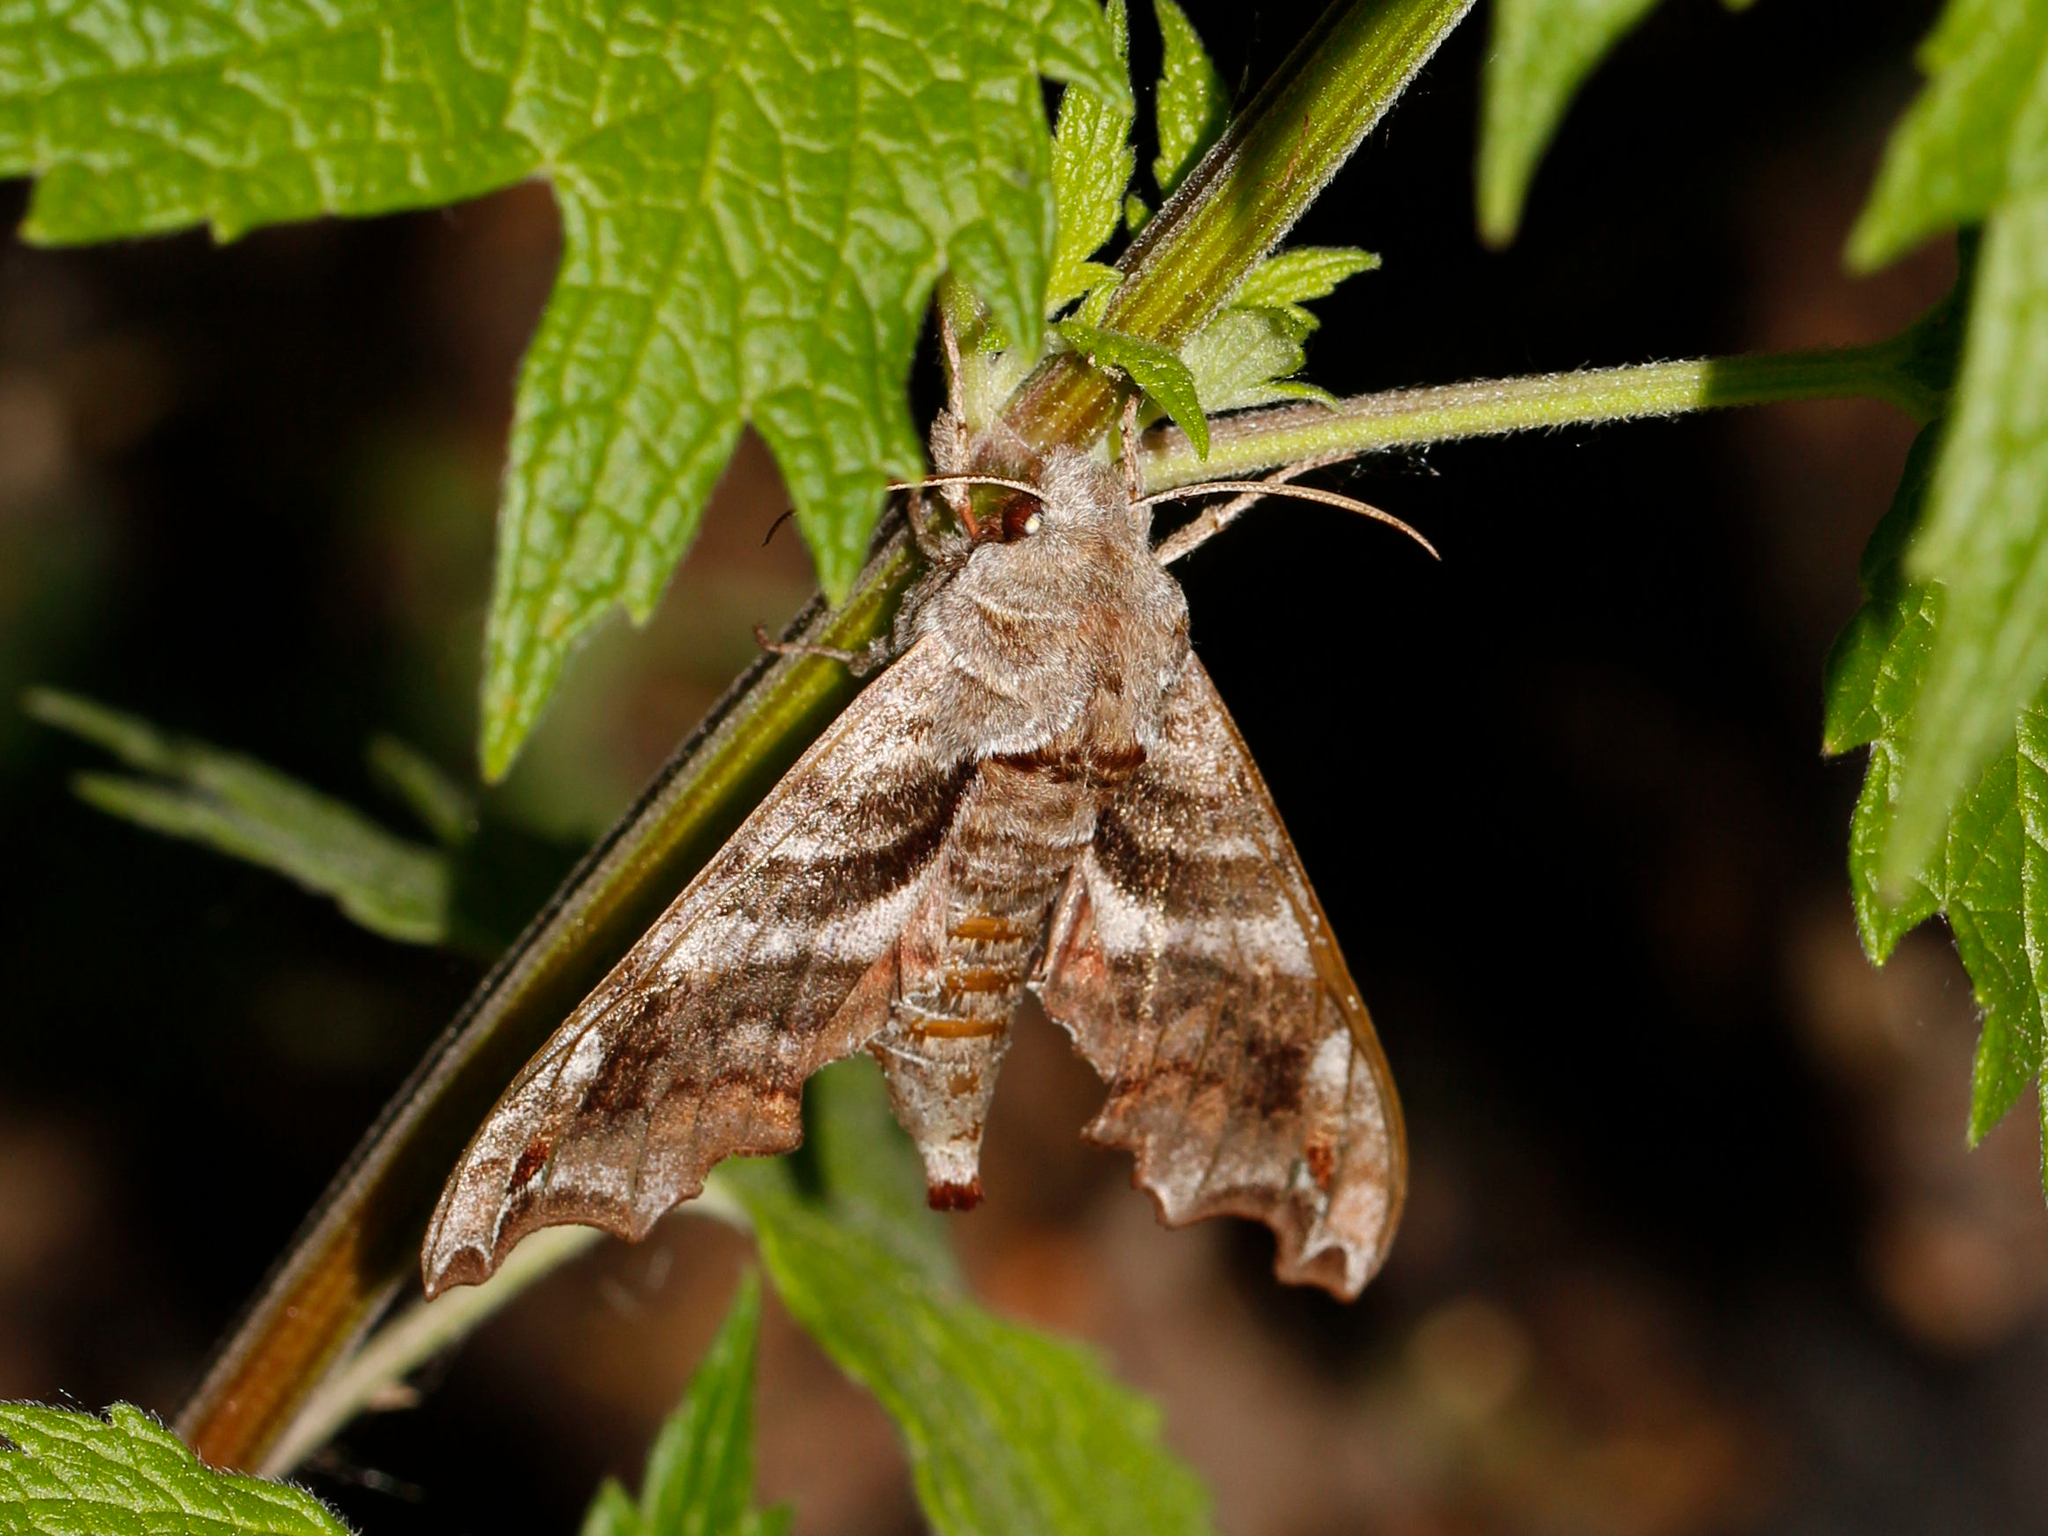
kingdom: Animalia
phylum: Arthropoda
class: Insecta
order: Lepidoptera
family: Sphingidae
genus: Deidamia
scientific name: Deidamia inscriptum
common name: Lettered sphinx
